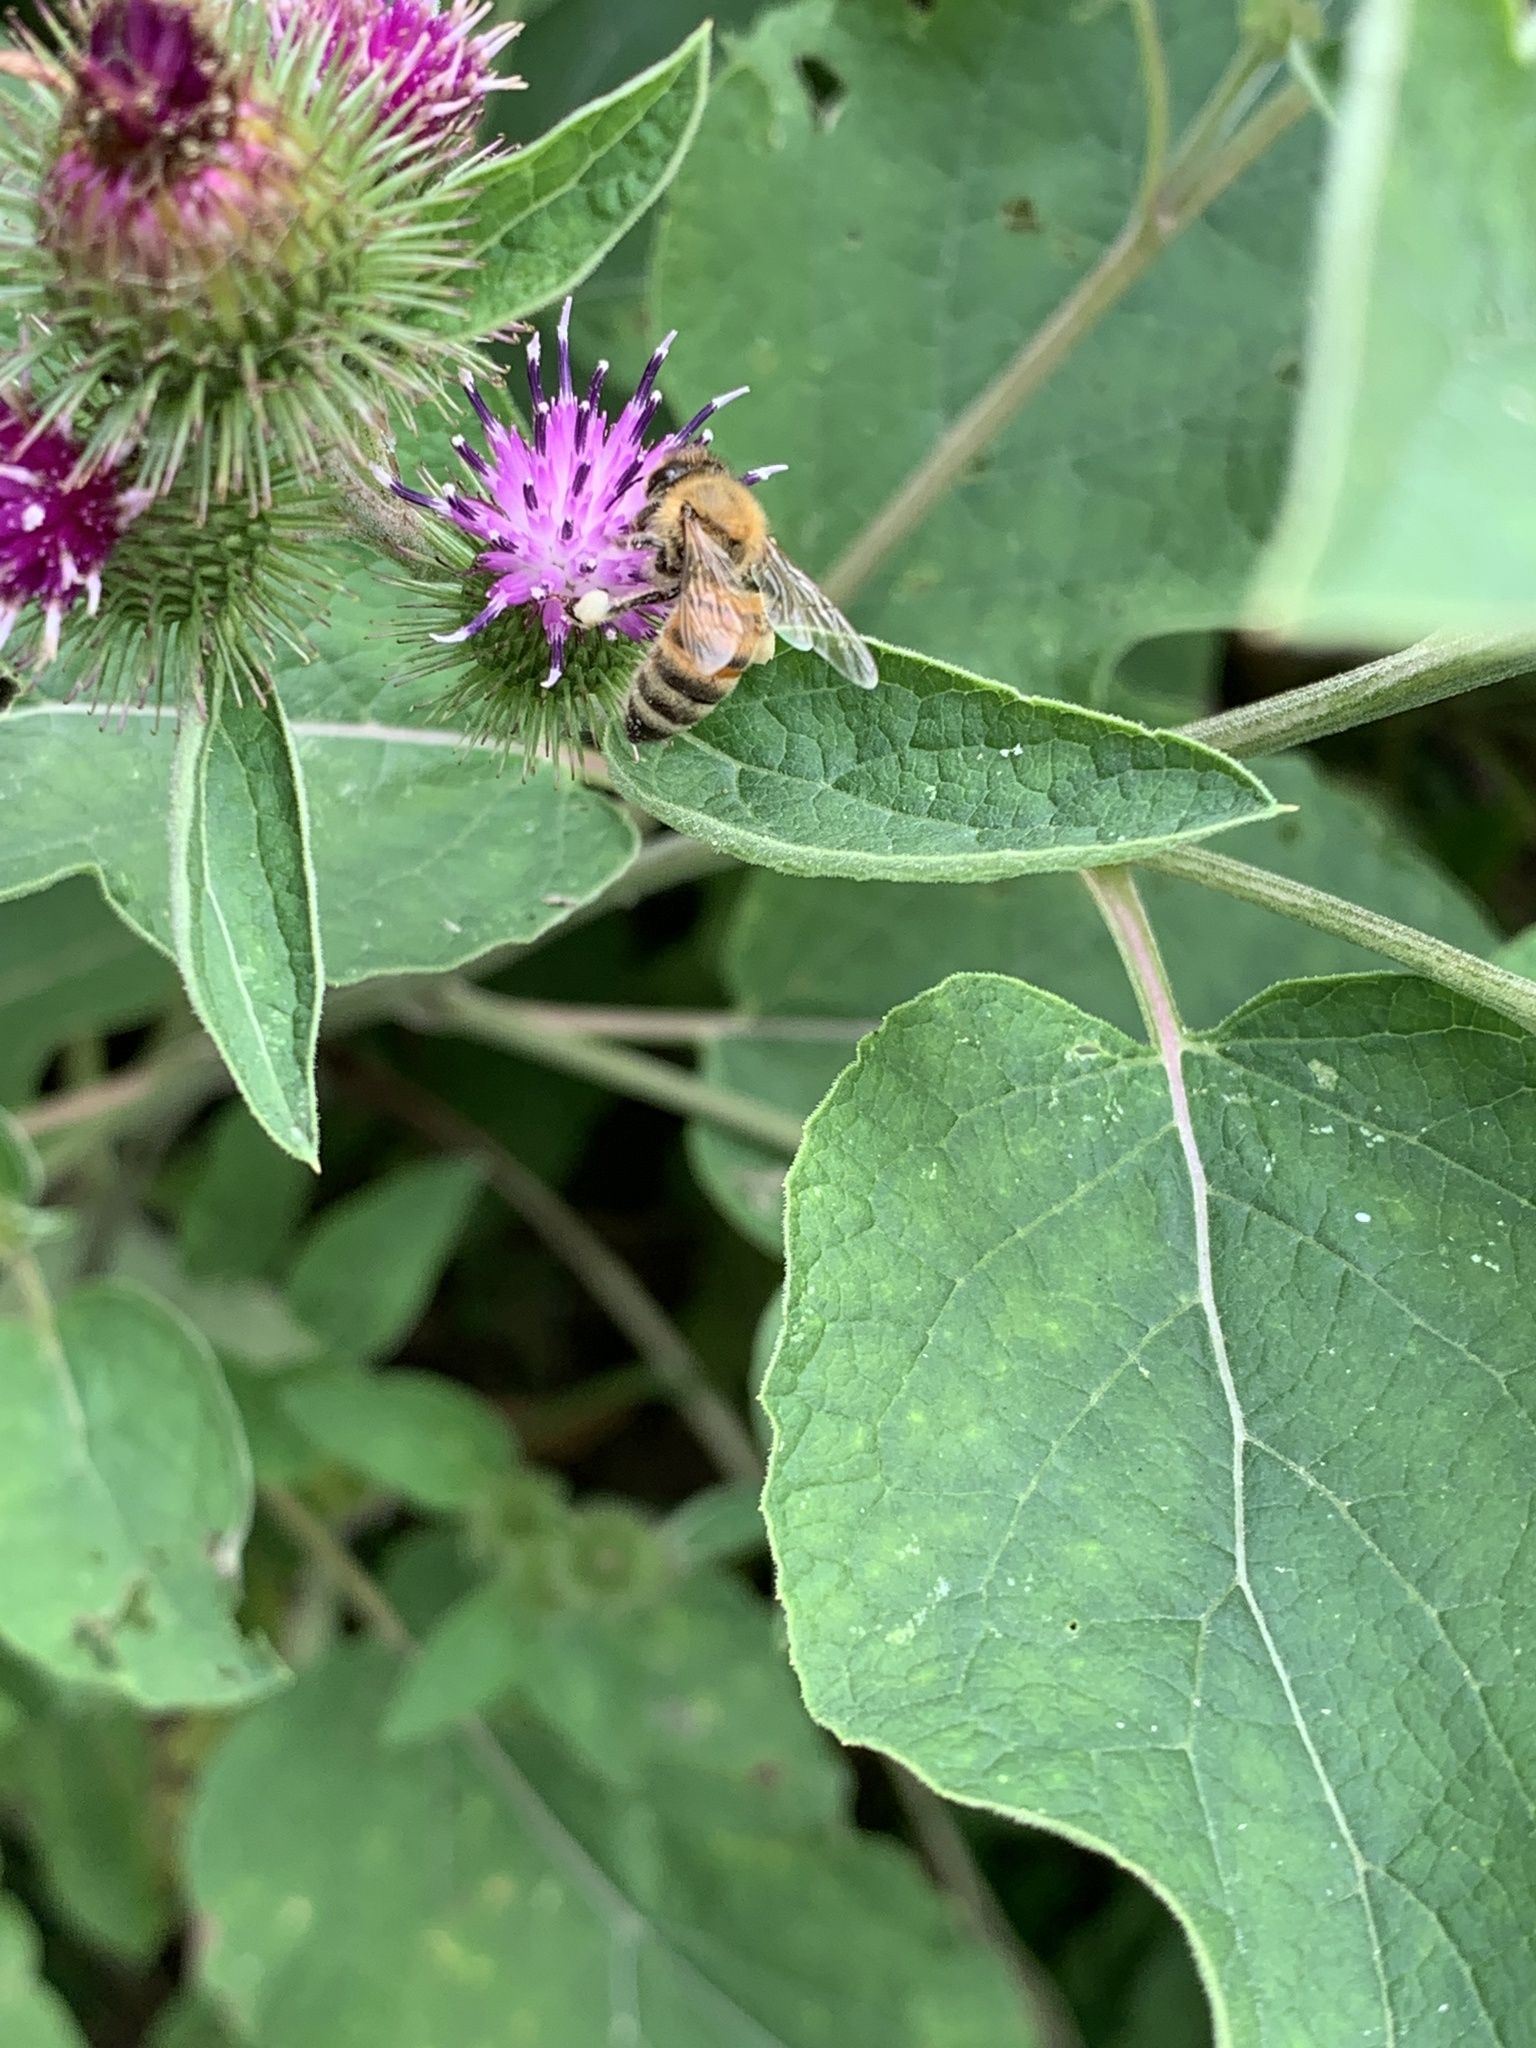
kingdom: Animalia
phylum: Arthropoda
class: Insecta
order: Hymenoptera
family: Apidae
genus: Apis
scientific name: Apis mellifera
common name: Honey bee
